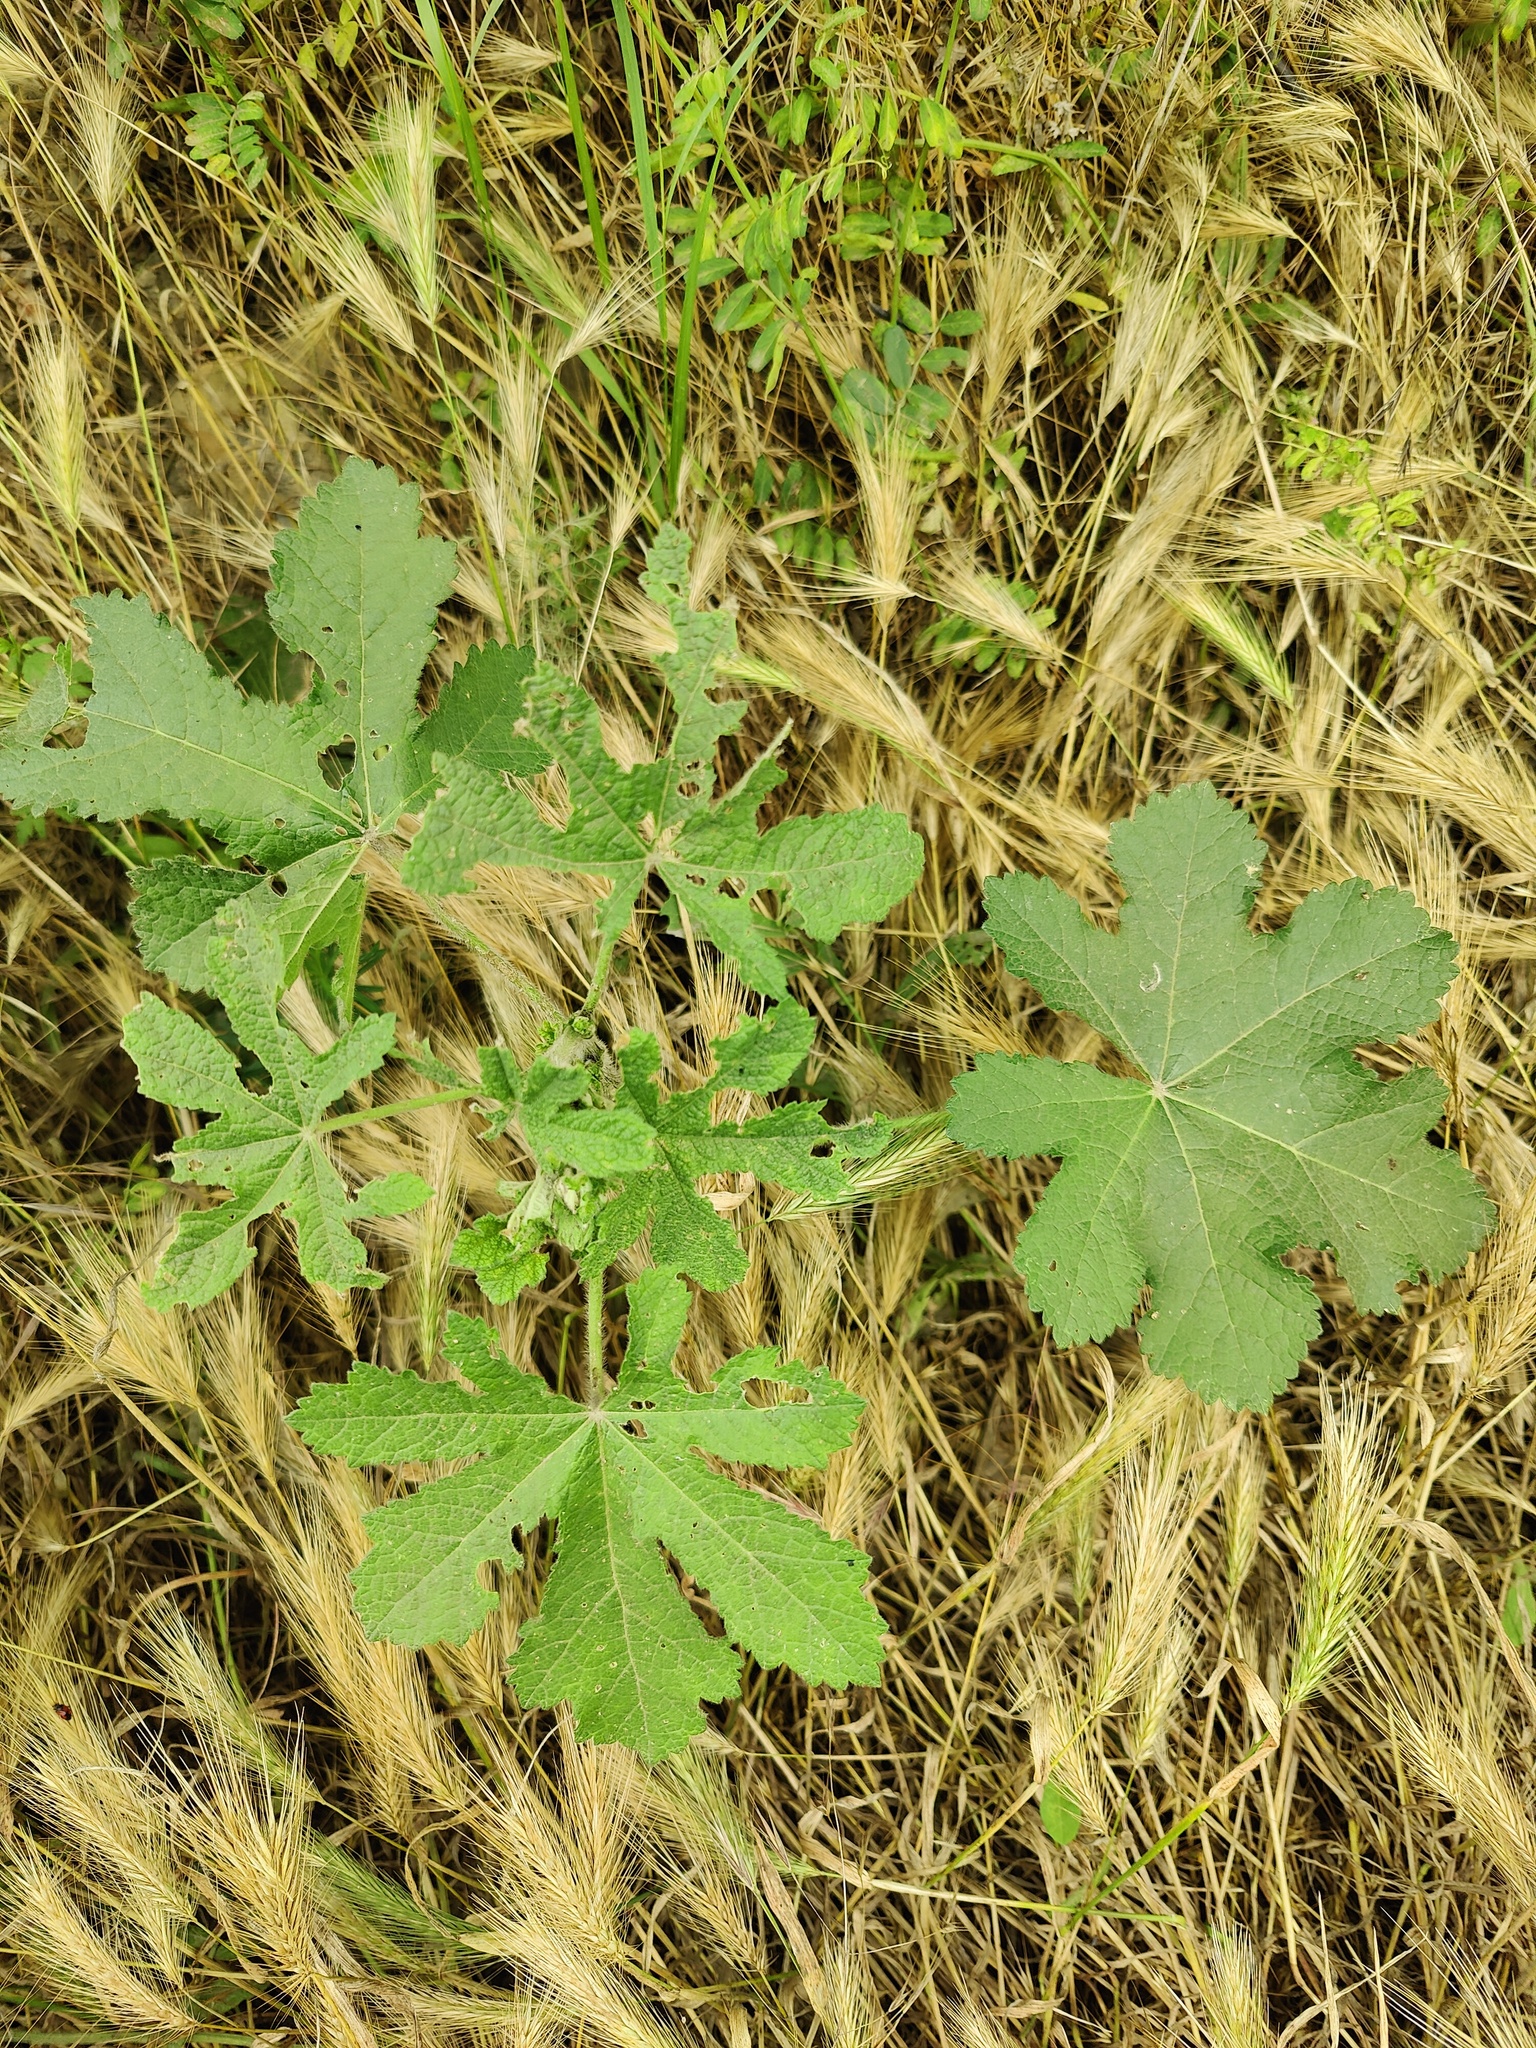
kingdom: Plantae
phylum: Tracheophyta
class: Magnoliopsida
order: Malvales
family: Malvaceae
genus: Alcea
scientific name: Alcea rugosa
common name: Russian hollyhock
